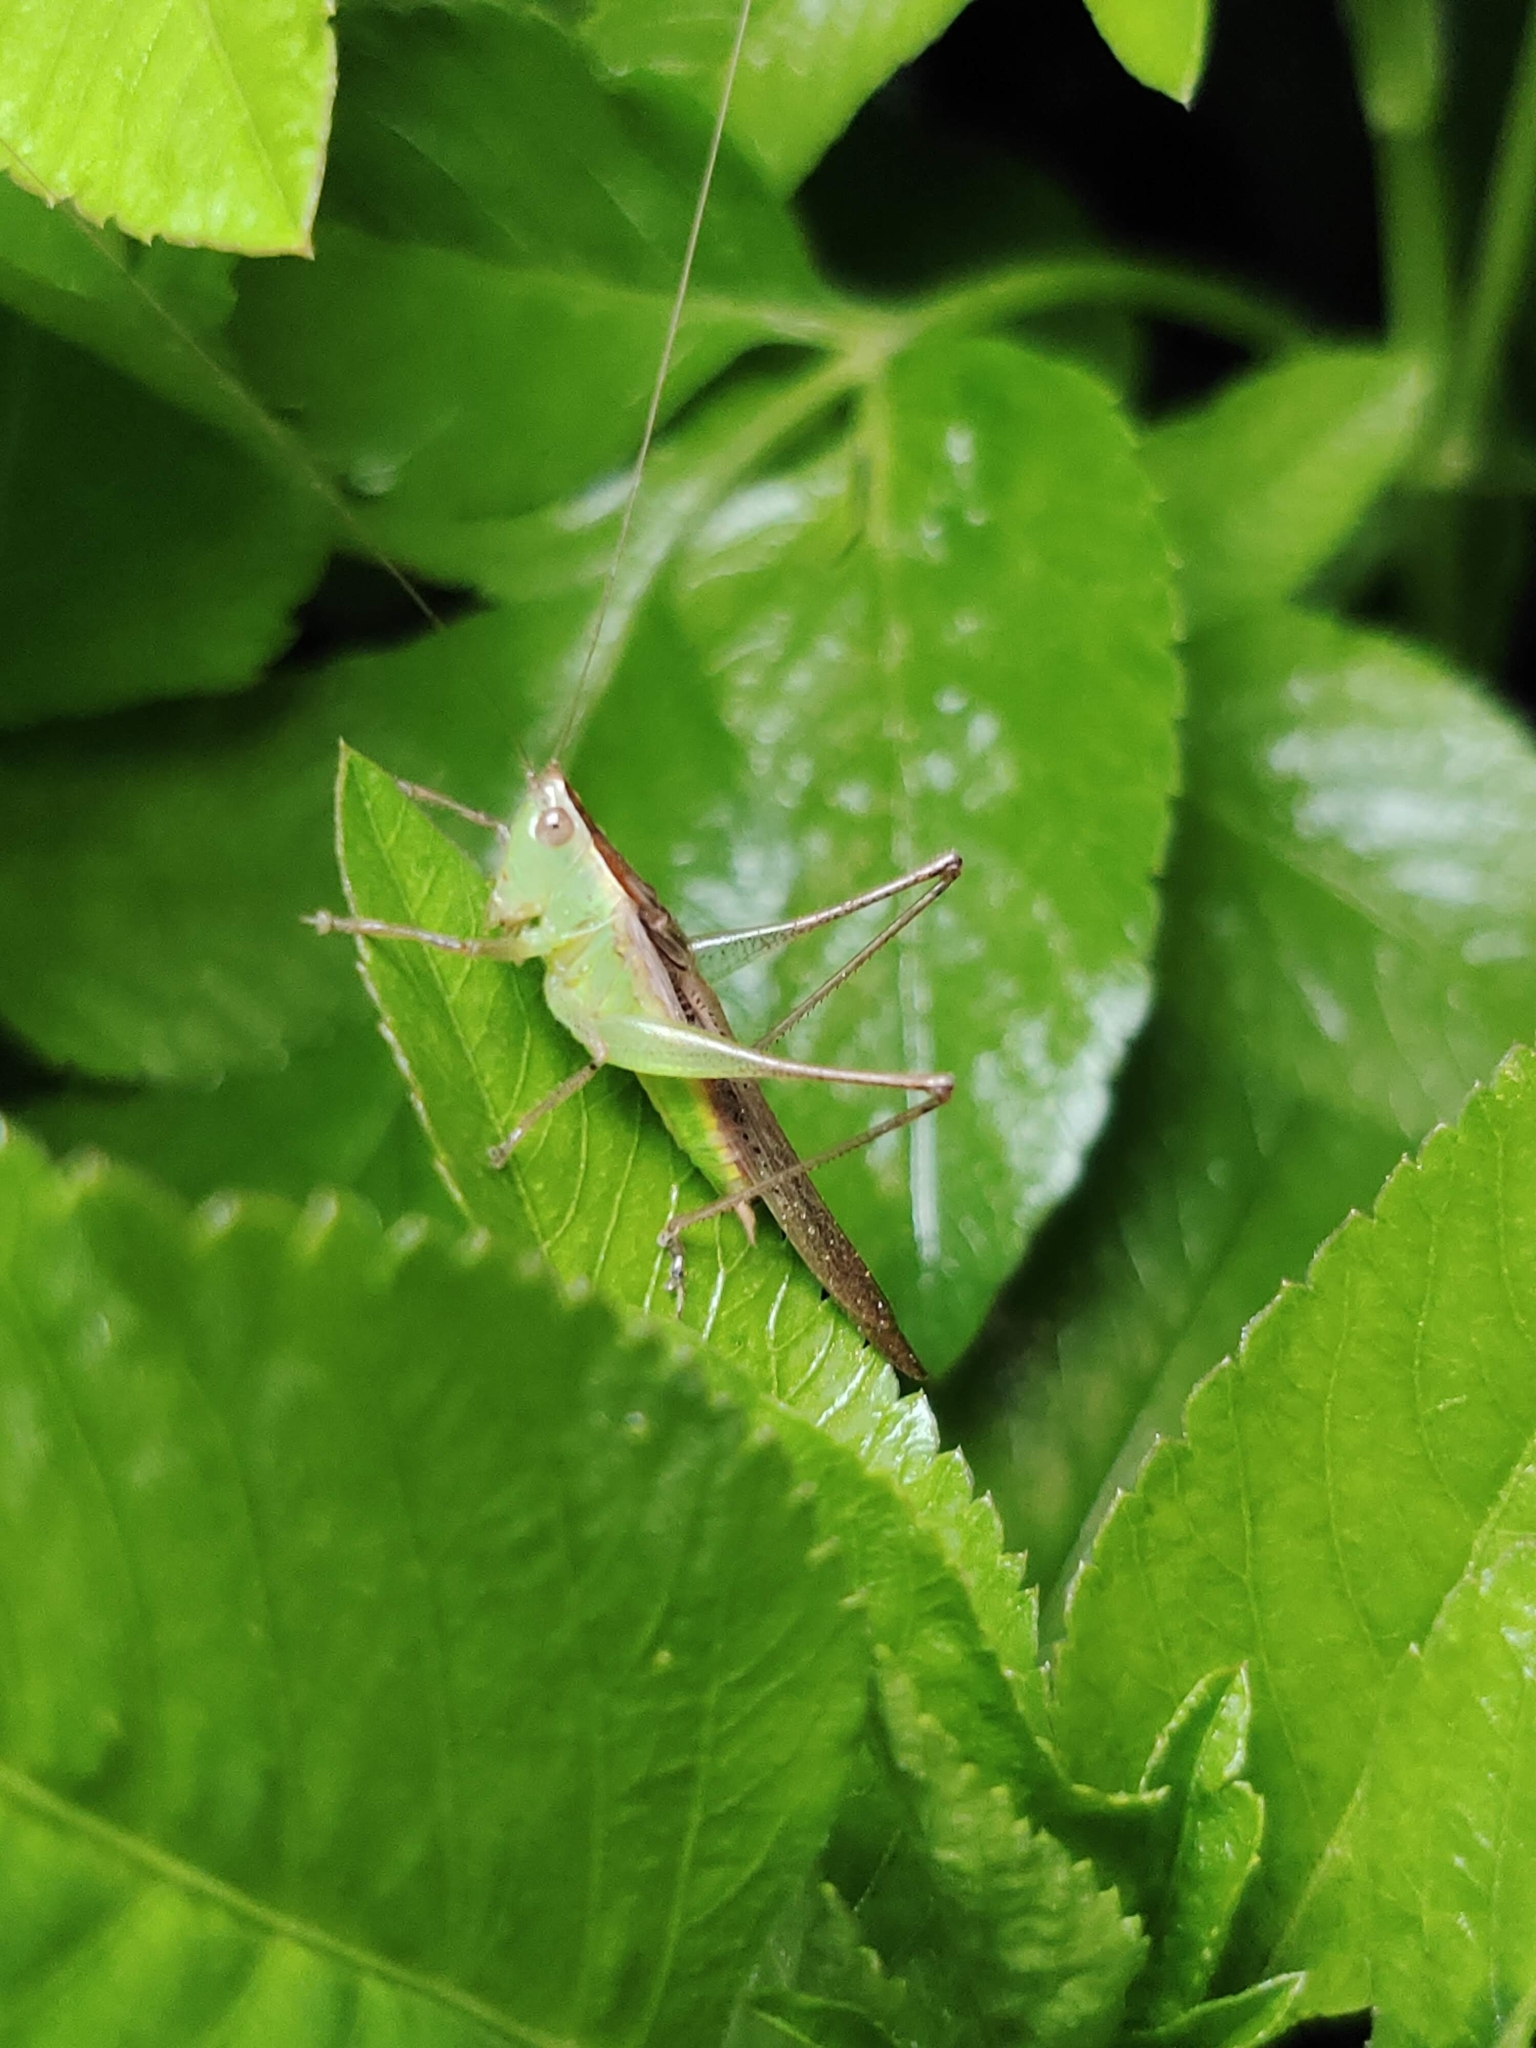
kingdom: Animalia
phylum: Arthropoda
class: Insecta
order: Orthoptera
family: Tettigoniidae
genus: Conocephalus
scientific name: Conocephalus maculatus
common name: Spotted meadow katydid
